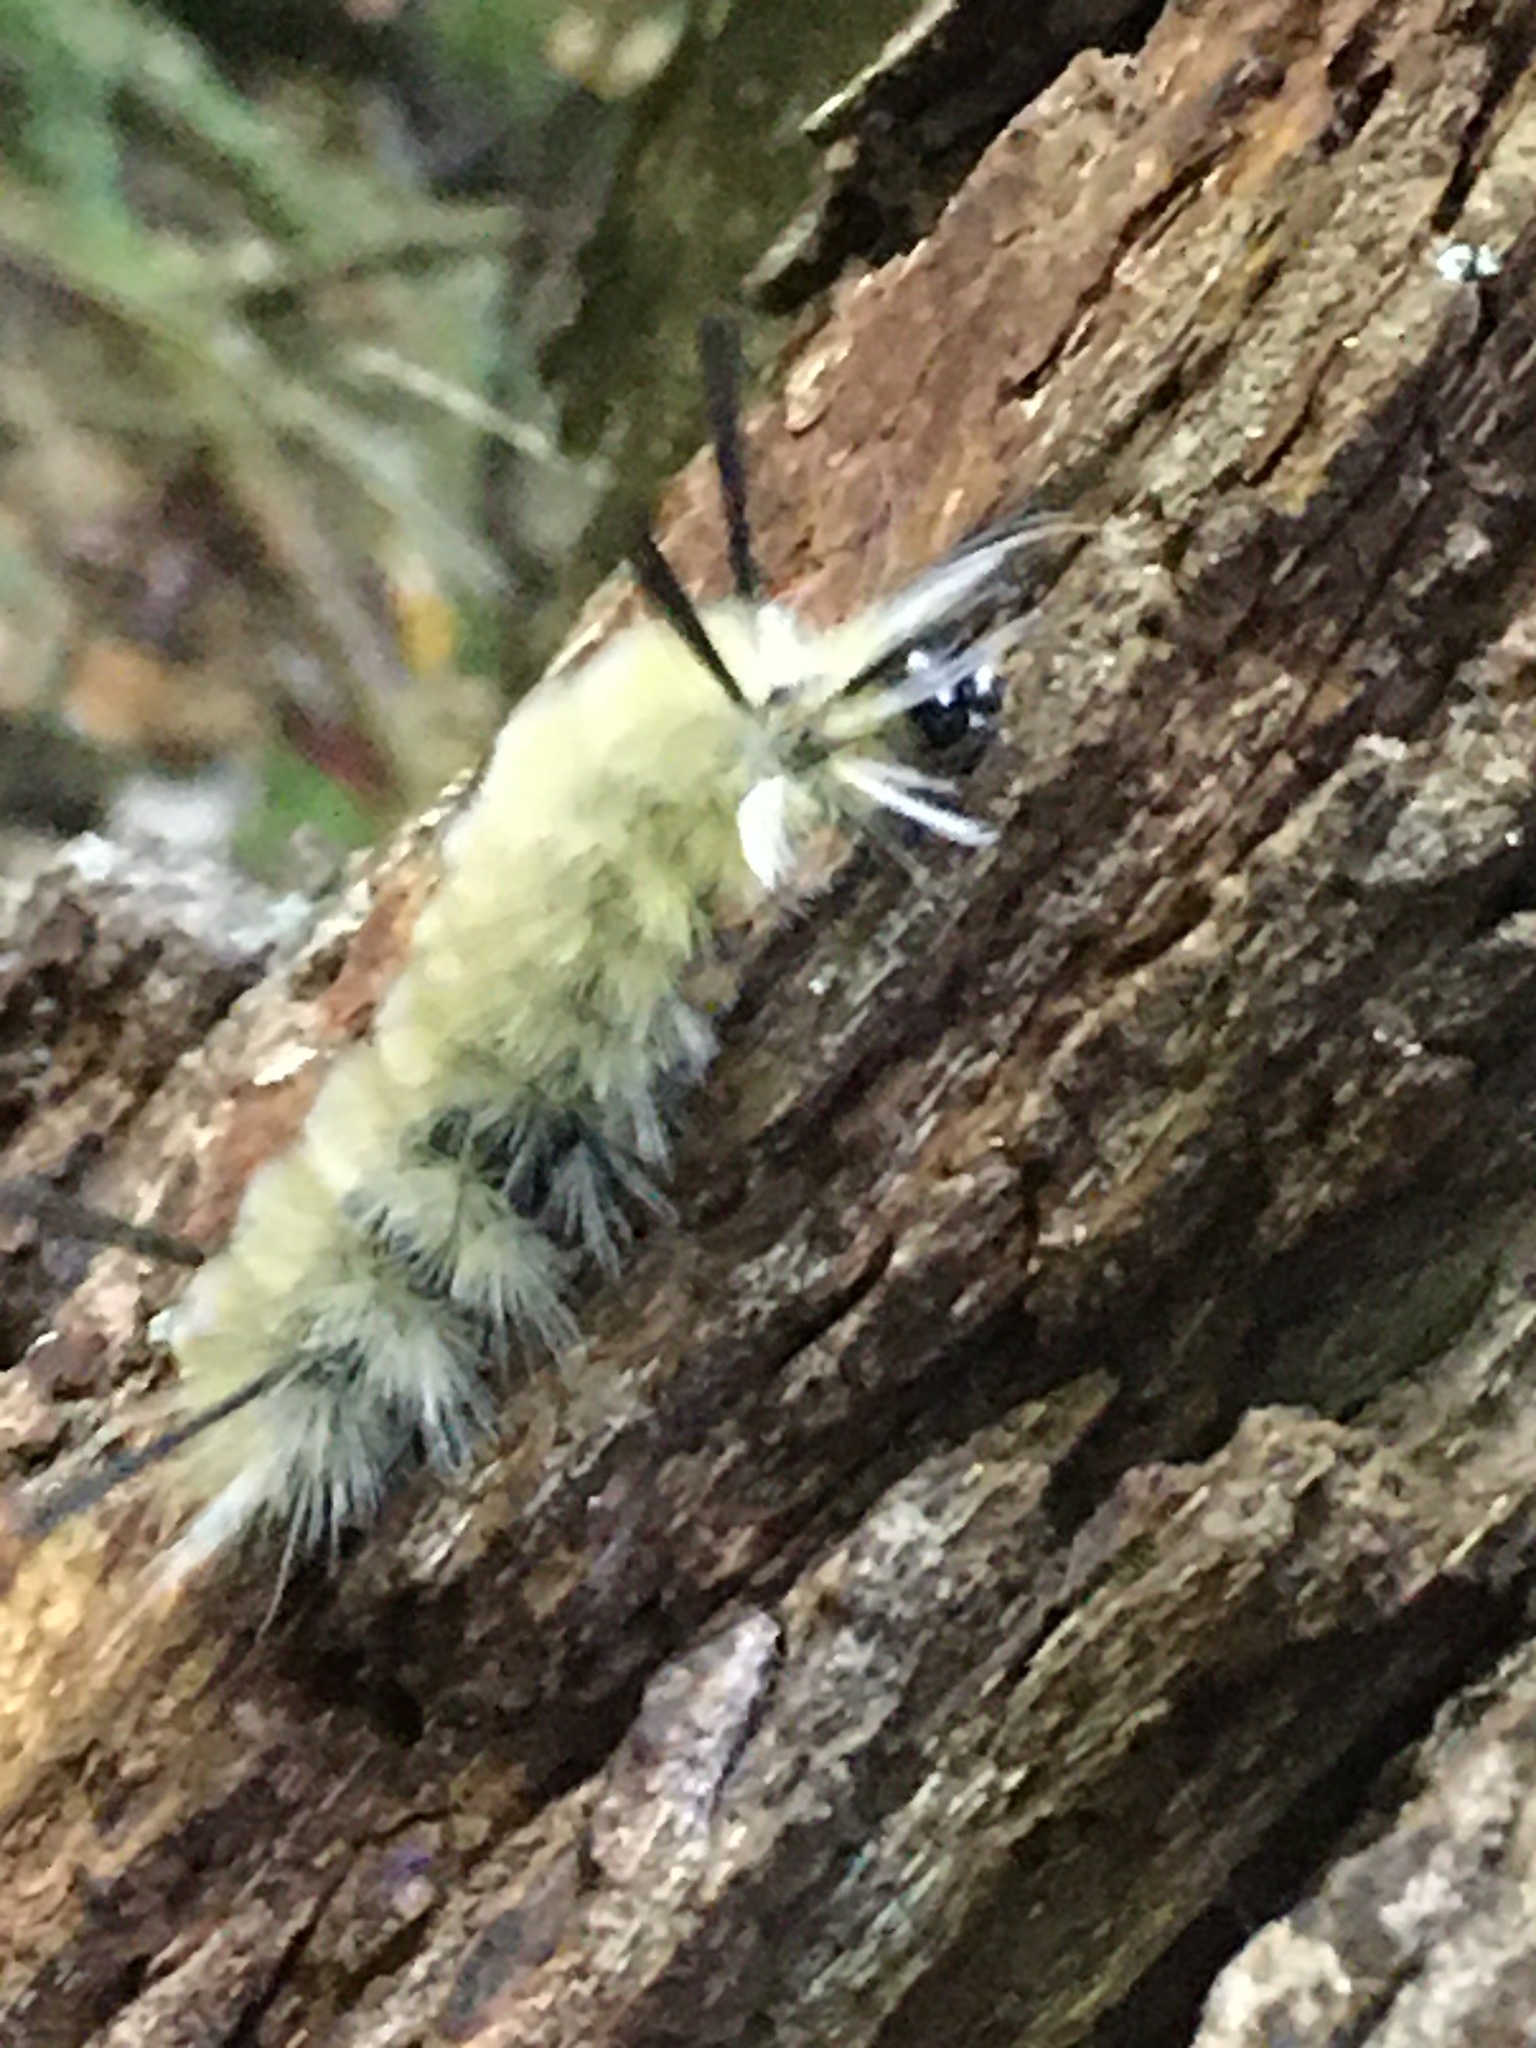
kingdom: Animalia
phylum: Arthropoda
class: Insecta
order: Lepidoptera
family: Erebidae
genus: Halysidota
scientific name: Halysidota tessellaris
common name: Banded tussock moth
